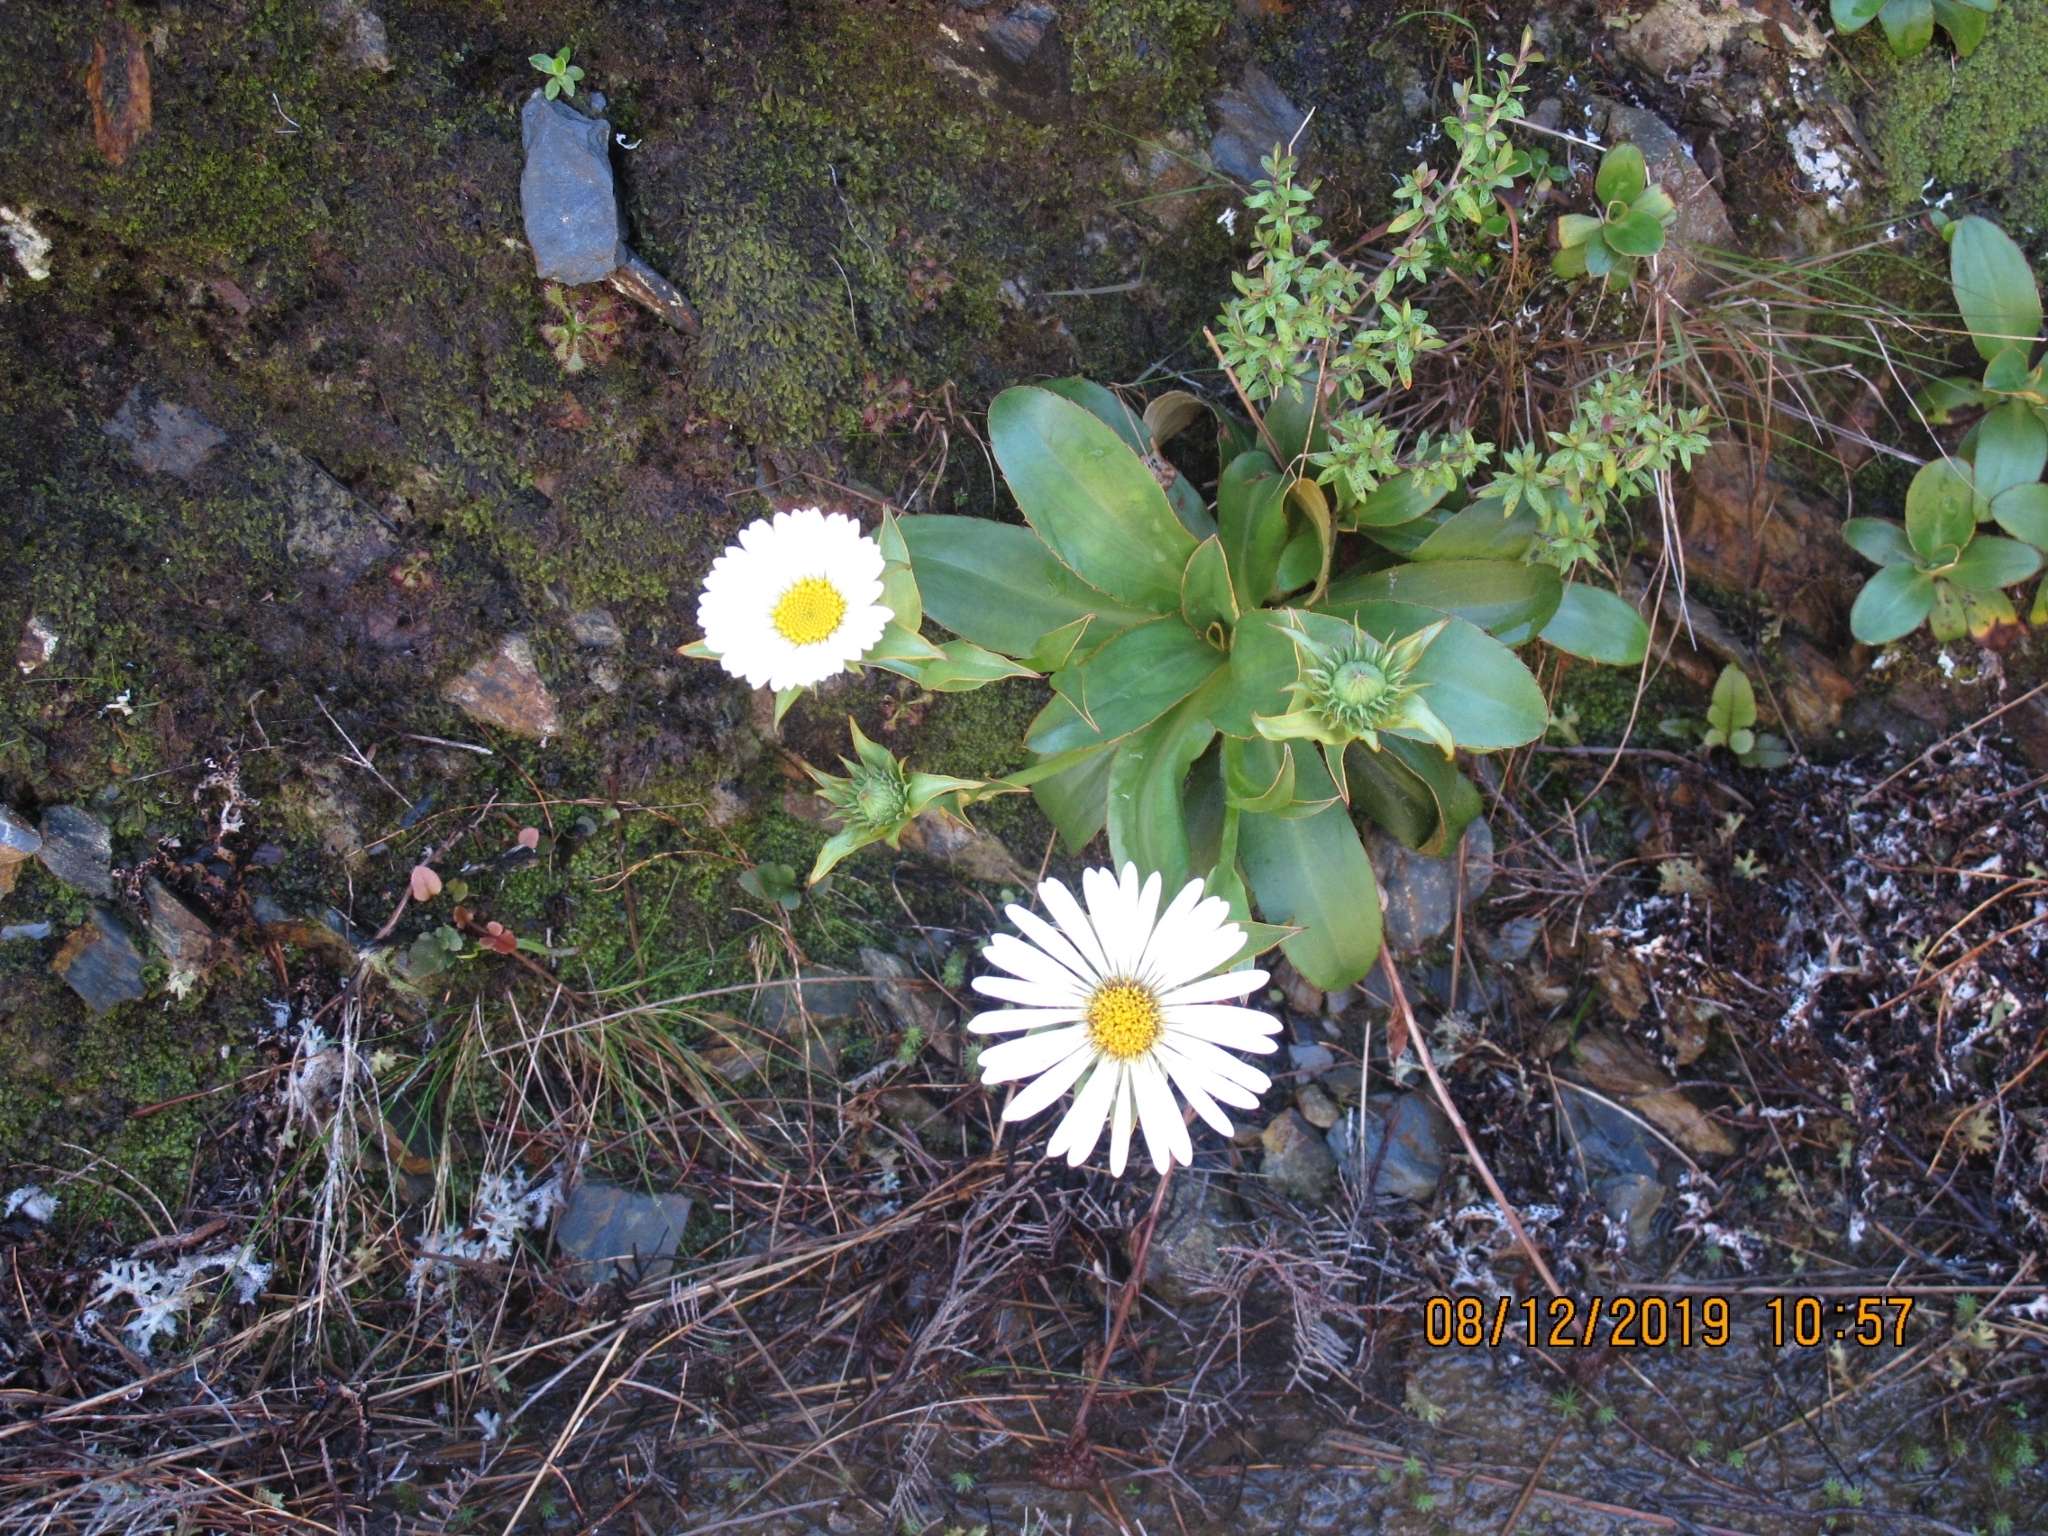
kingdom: Plantae
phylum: Tracheophyta
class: Magnoliopsida
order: Asterales
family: Asteraceae
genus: Celmisia
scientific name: Celmisia dallii
